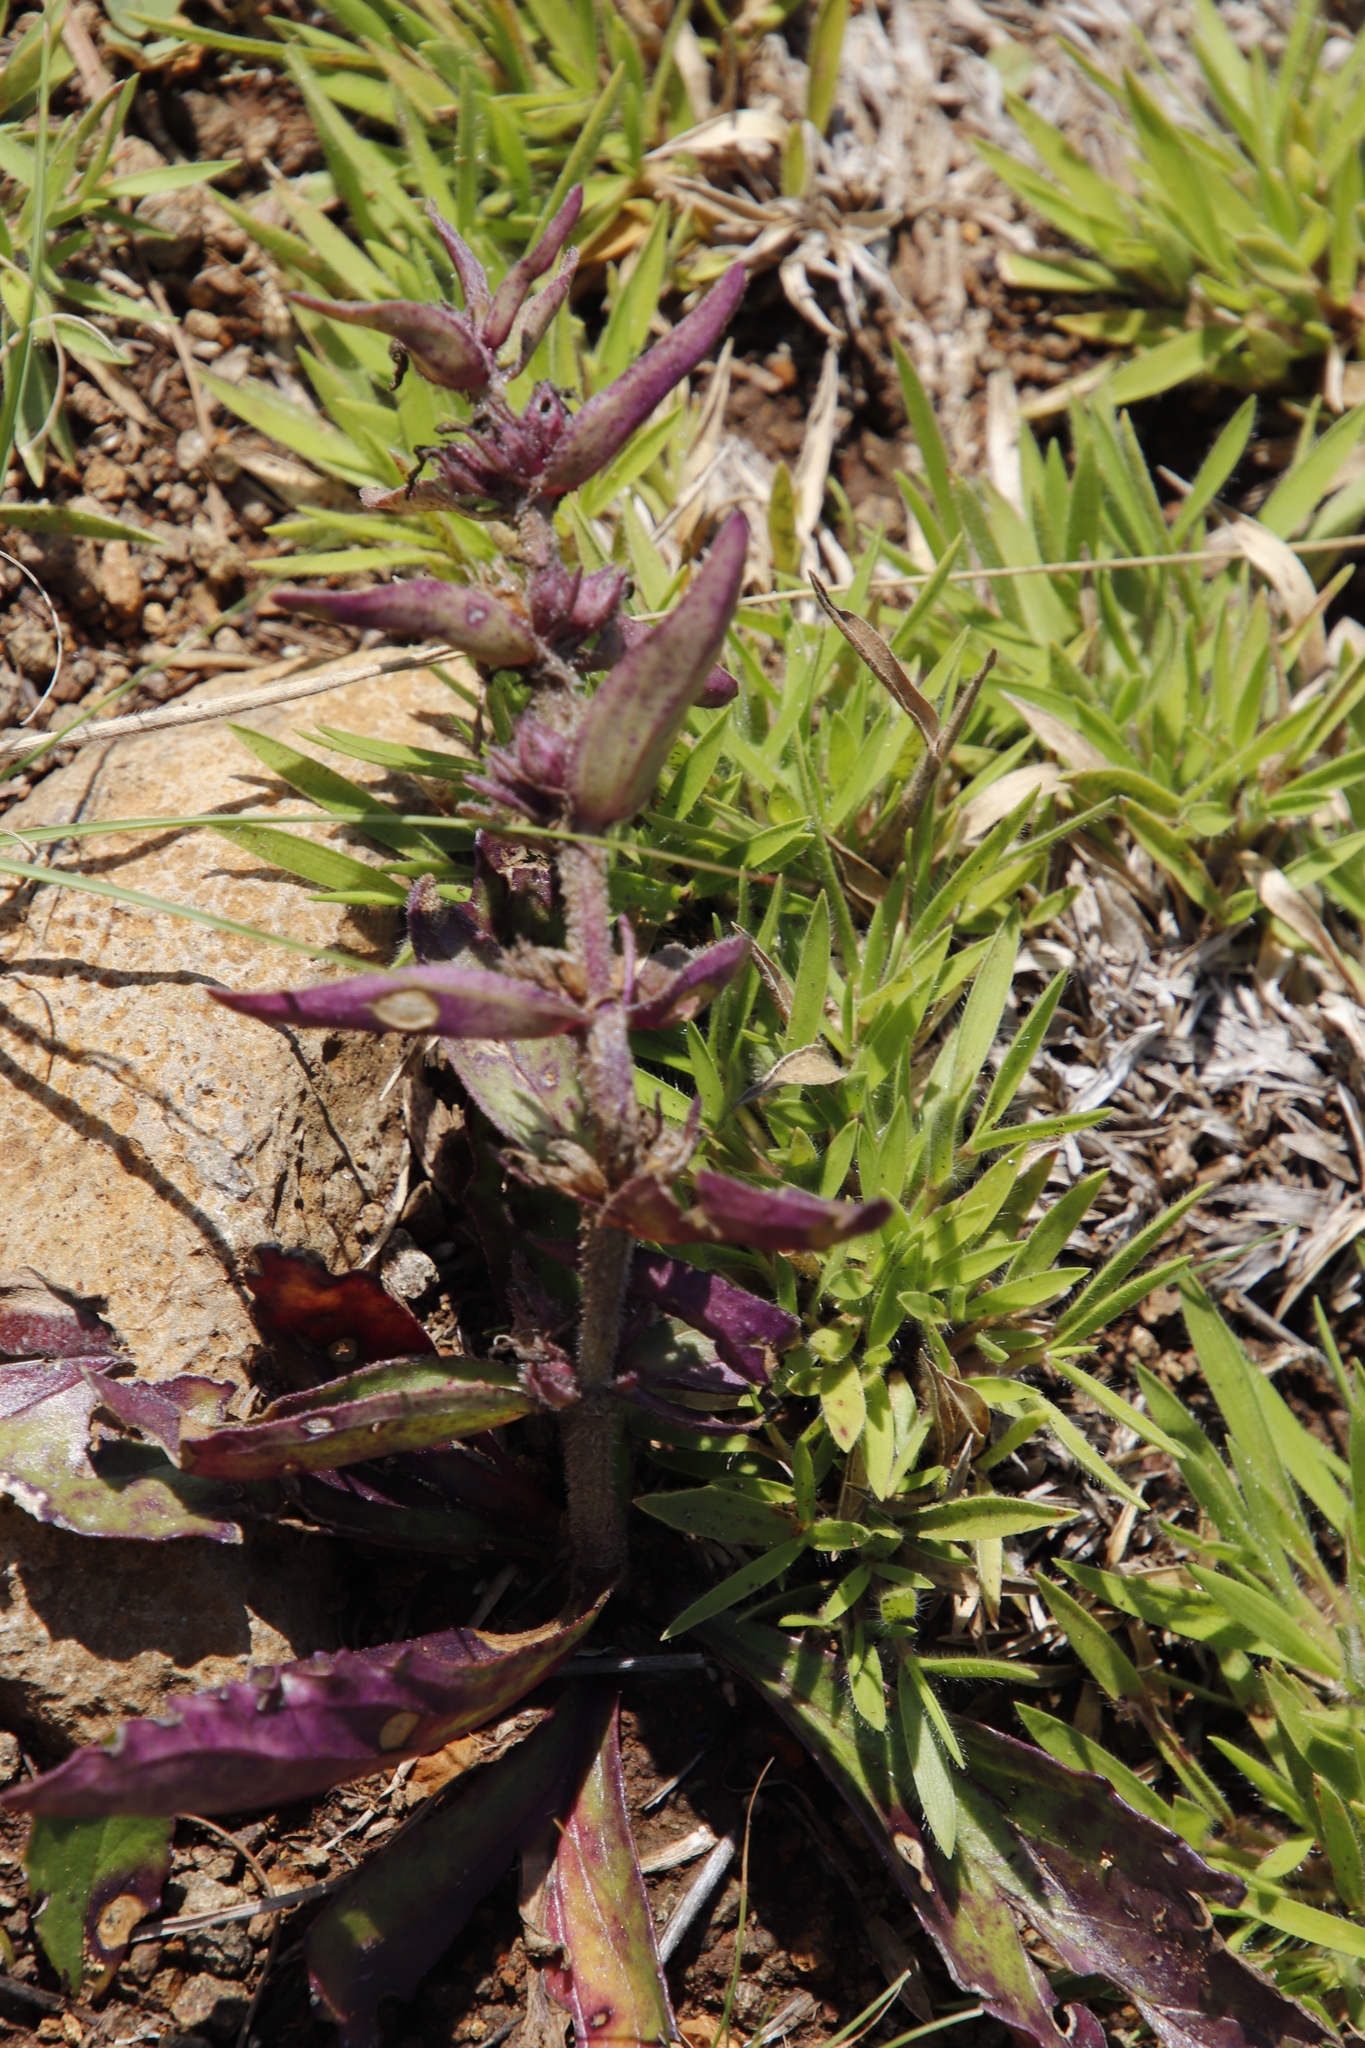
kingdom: Plantae
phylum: Tracheophyta
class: Magnoliopsida
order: Lamiales
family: Lamiaceae
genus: Ajuga
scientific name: Ajuga ophrydis
